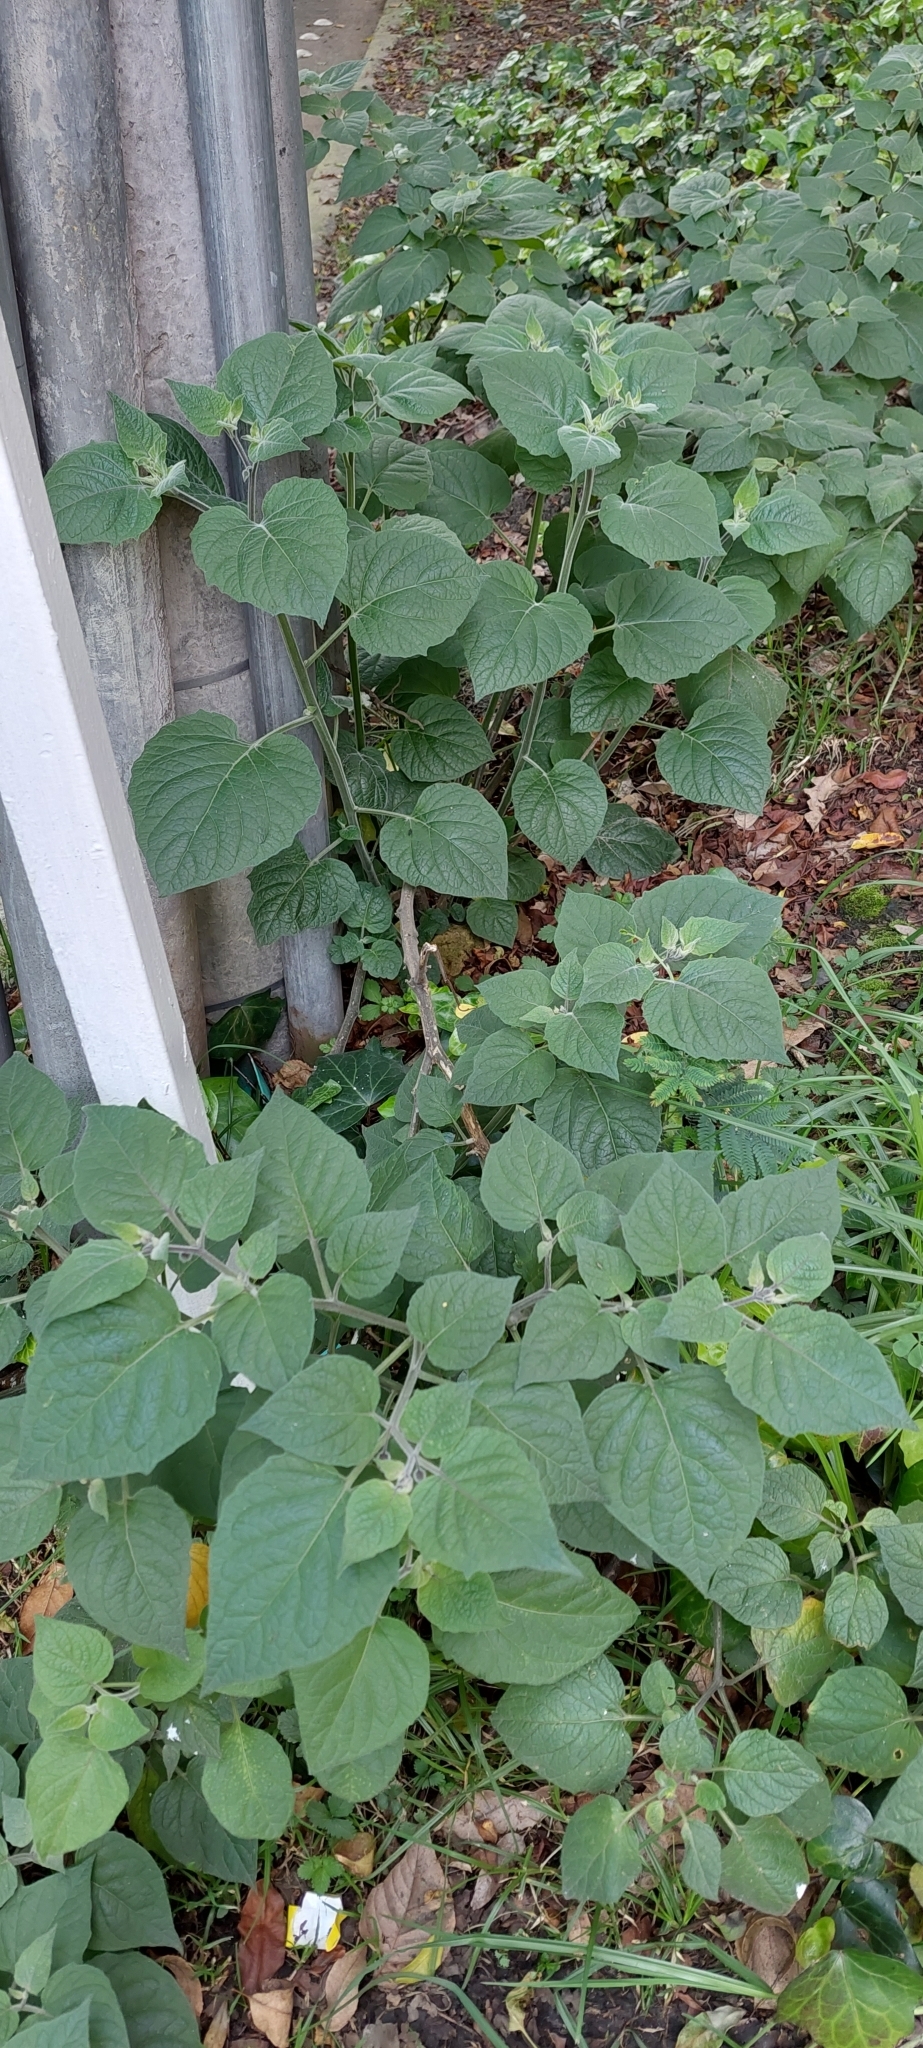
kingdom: Plantae
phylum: Tracheophyta
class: Magnoliopsida
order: Solanales
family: Solanaceae
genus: Physalis
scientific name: Physalis peruviana
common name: Cape-gooseberry
